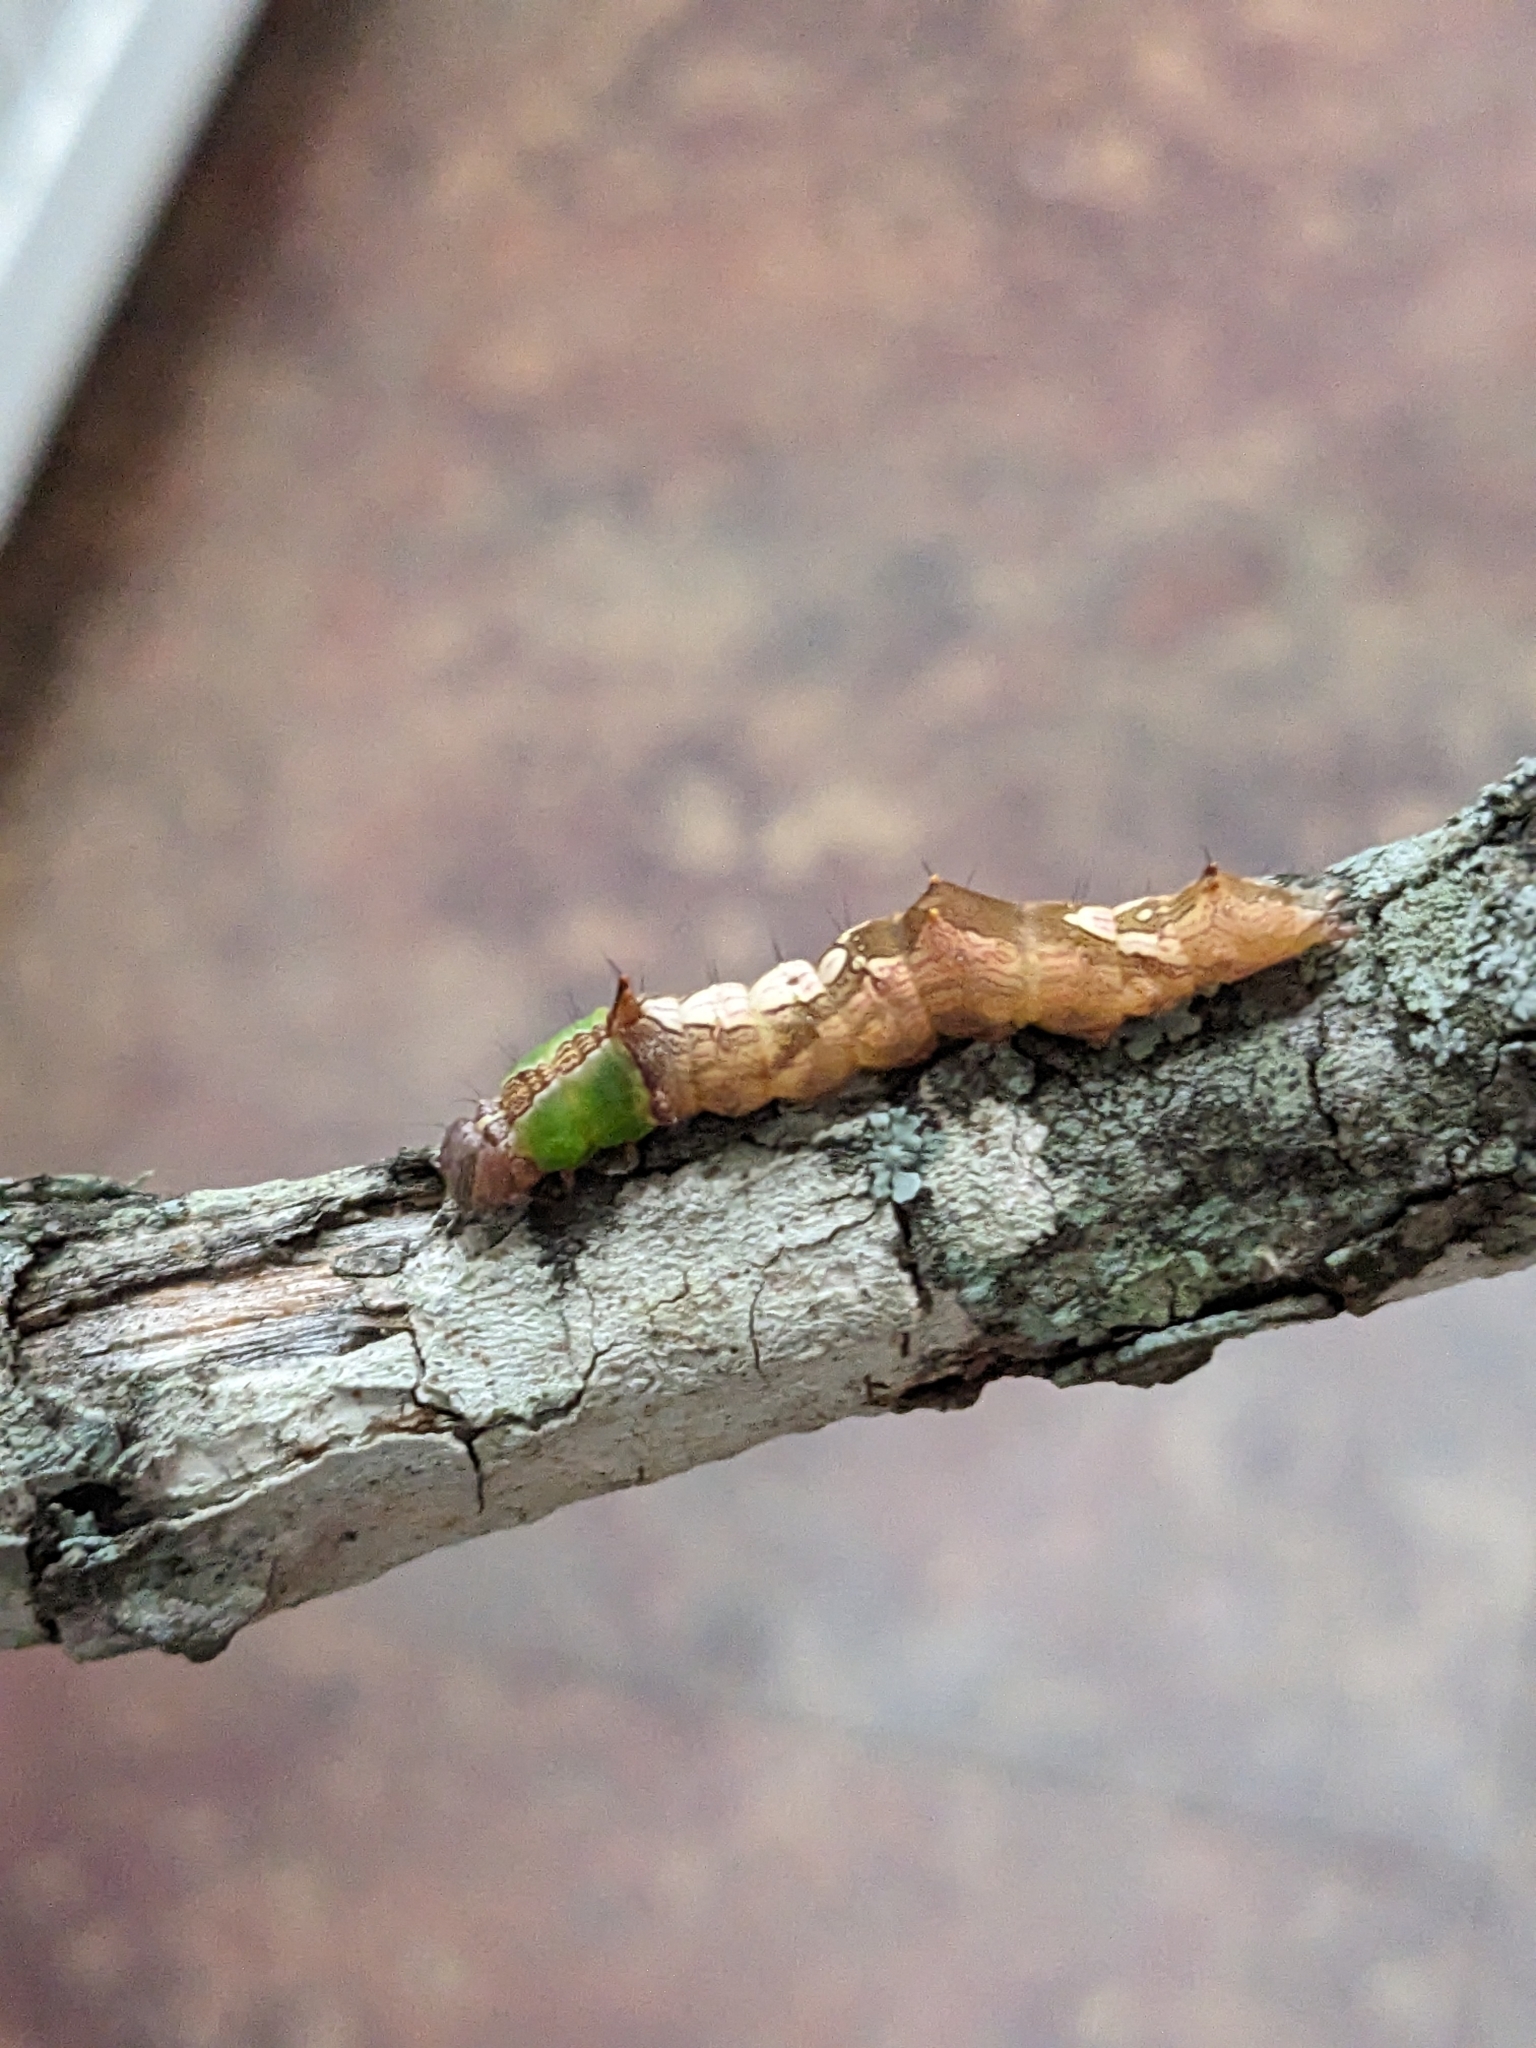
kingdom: Animalia
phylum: Arthropoda
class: Insecta
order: Lepidoptera
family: Notodontidae
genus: Schizura
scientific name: Schizura ipomaeae
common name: Morning-glory prominent
